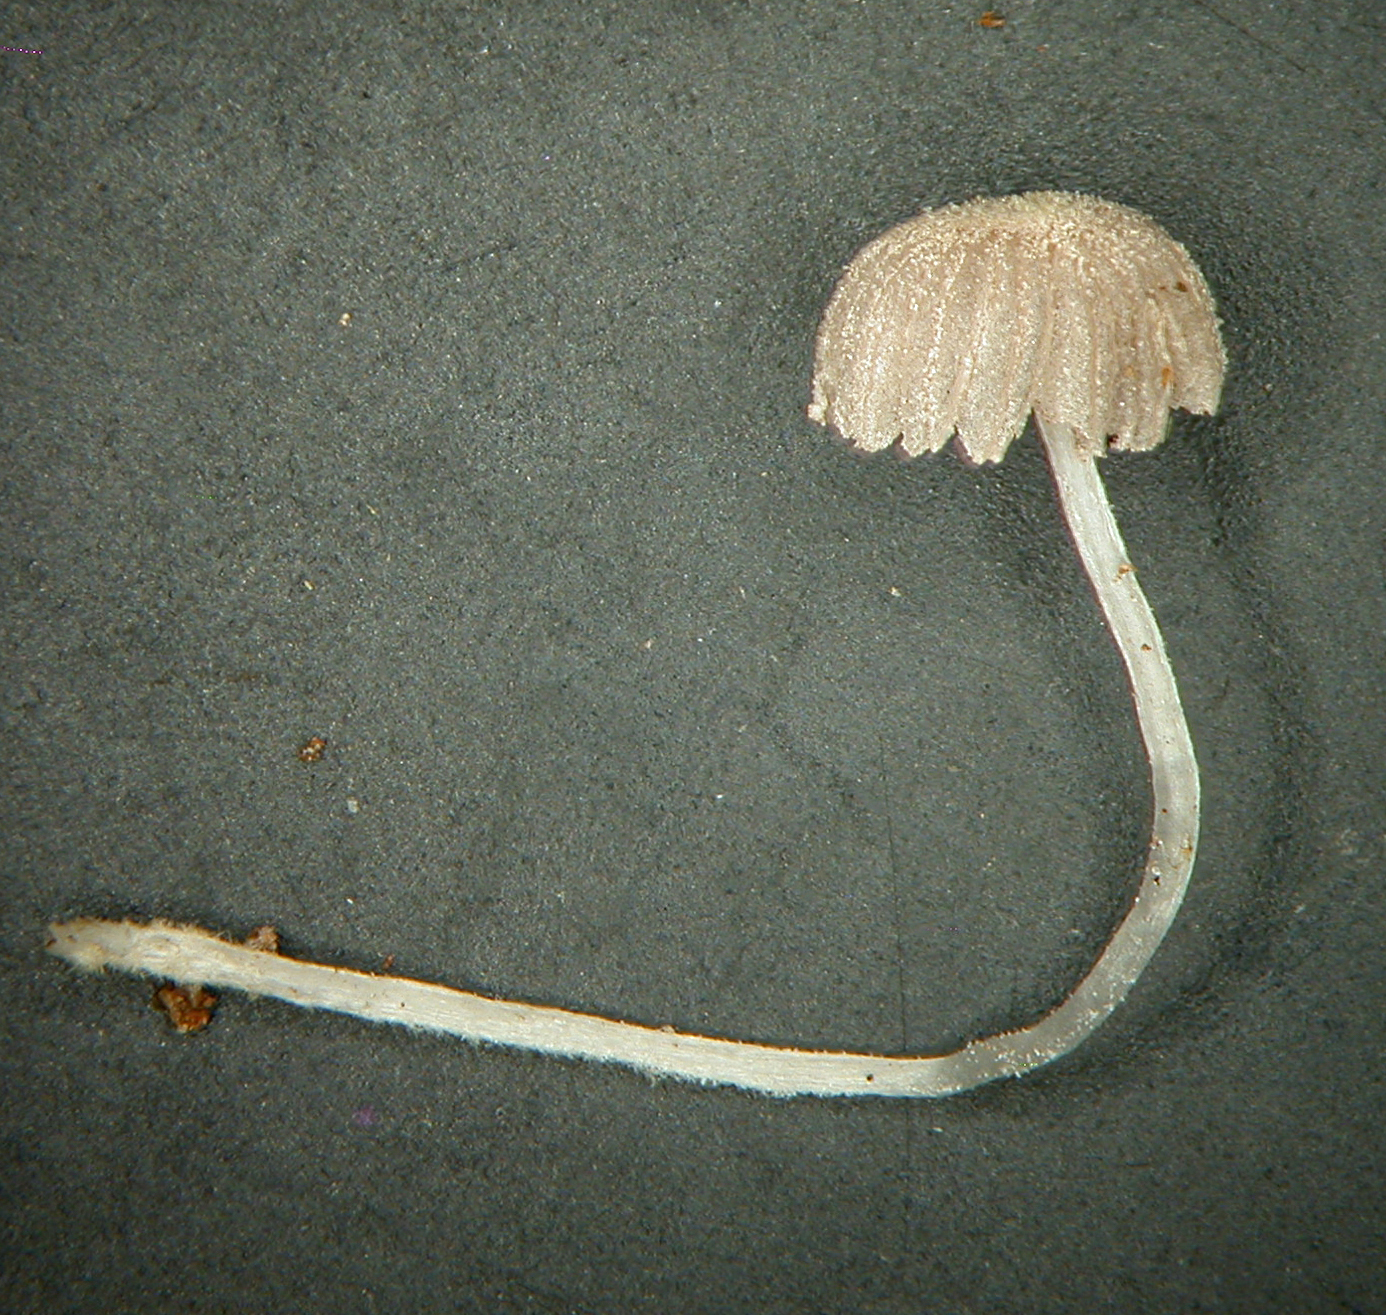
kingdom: Fungi
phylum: Basidiomycota
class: Agaricomycetes
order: Agaricales
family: Psathyrellaceae
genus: Coprinopsis
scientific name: Coprinopsis coniophora
